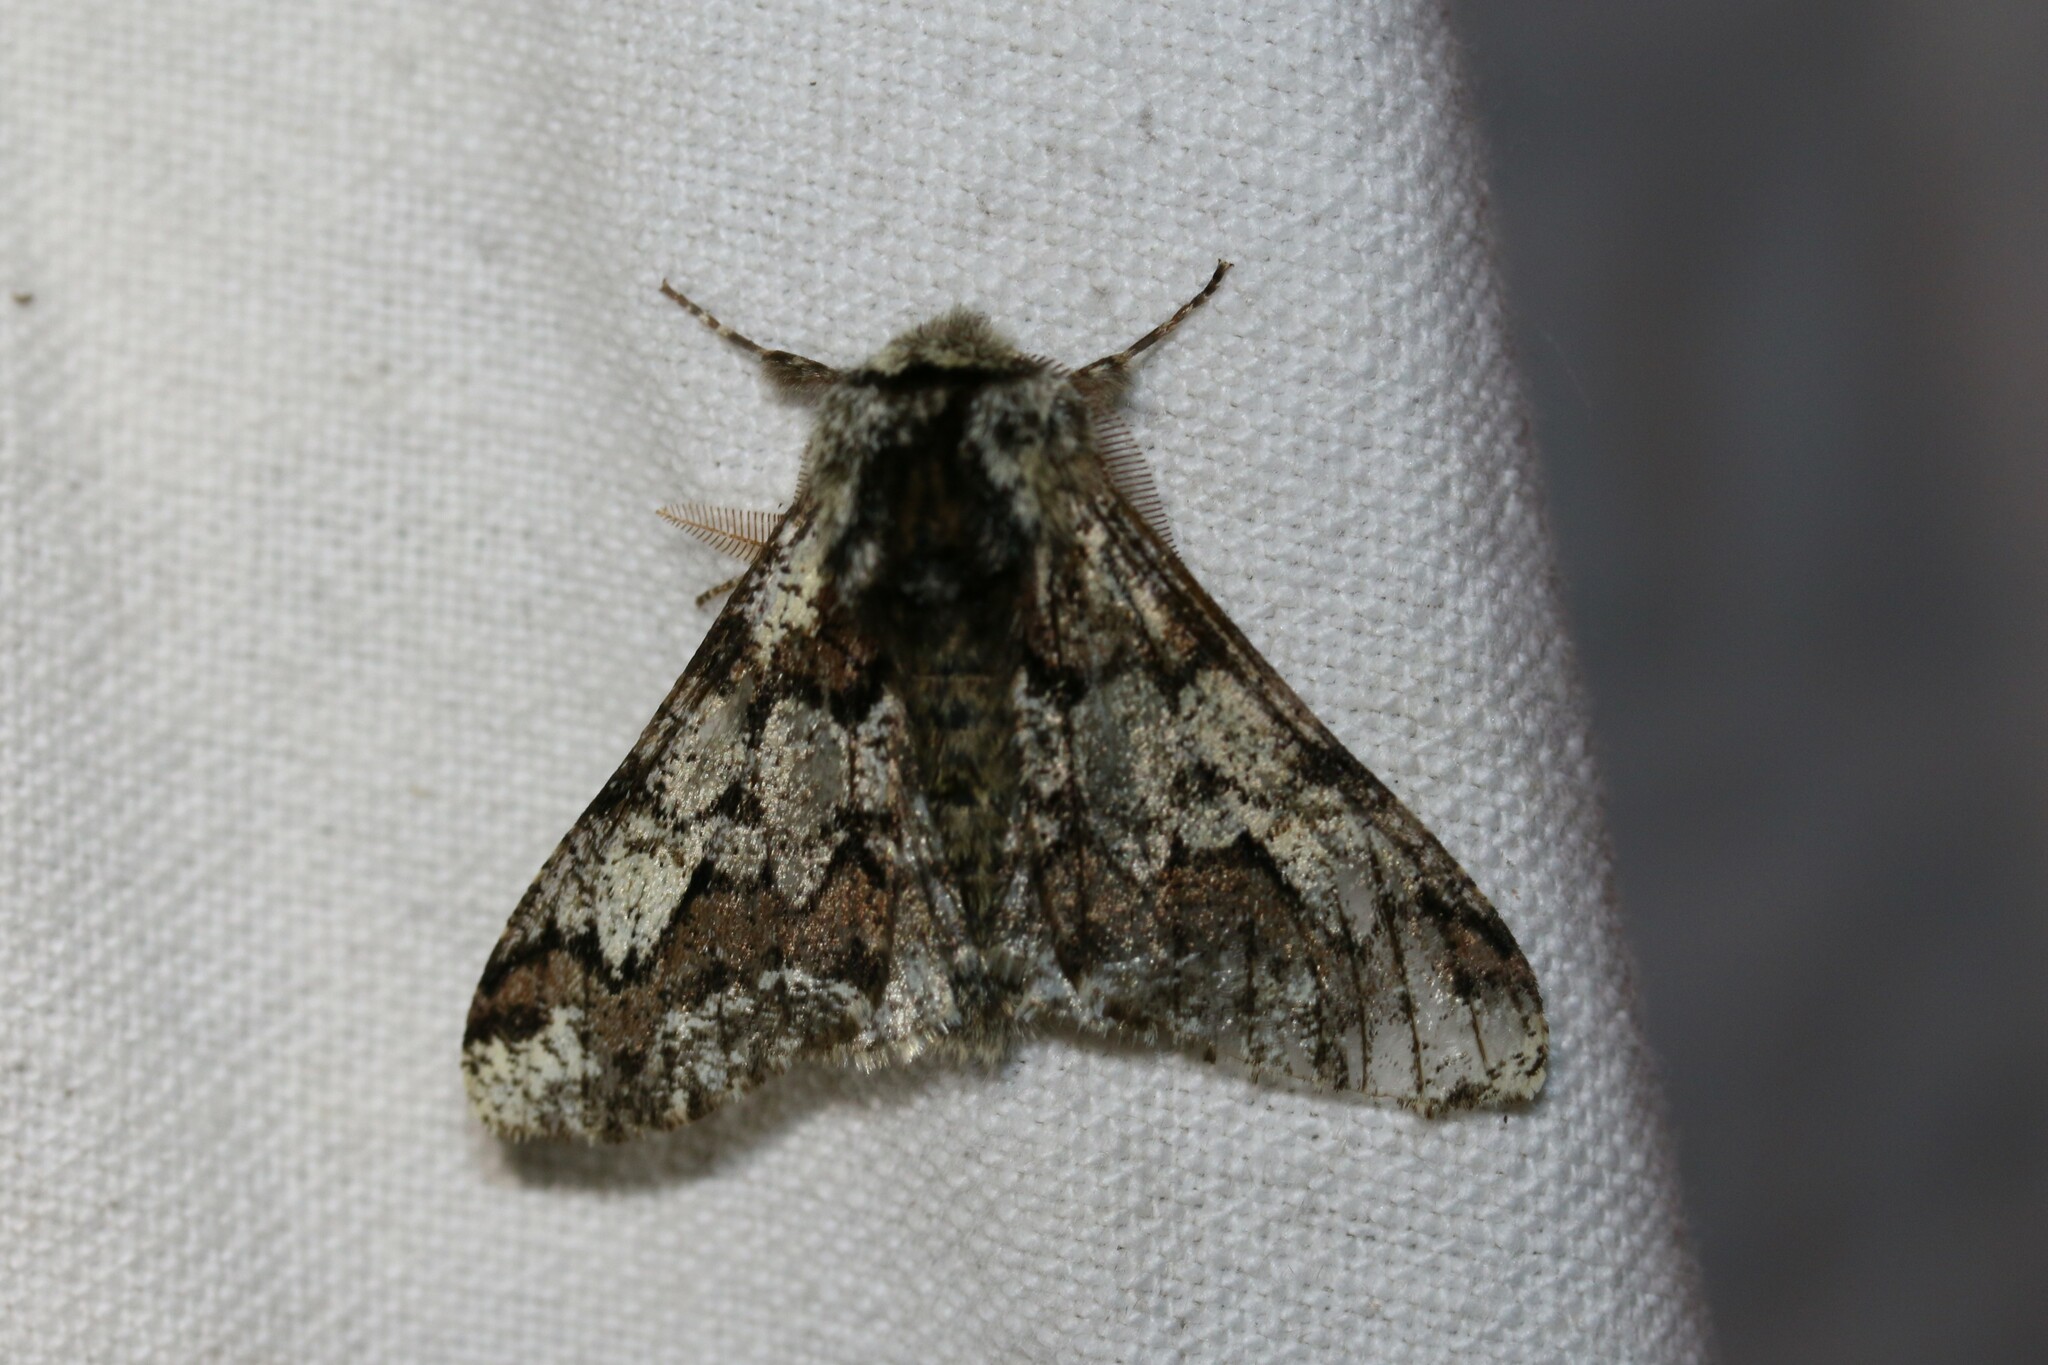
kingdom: Animalia
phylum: Arthropoda
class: Insecta
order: Lepidoptera
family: Geometridae
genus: Biston
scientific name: Biston strataria
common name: Oak beauty
